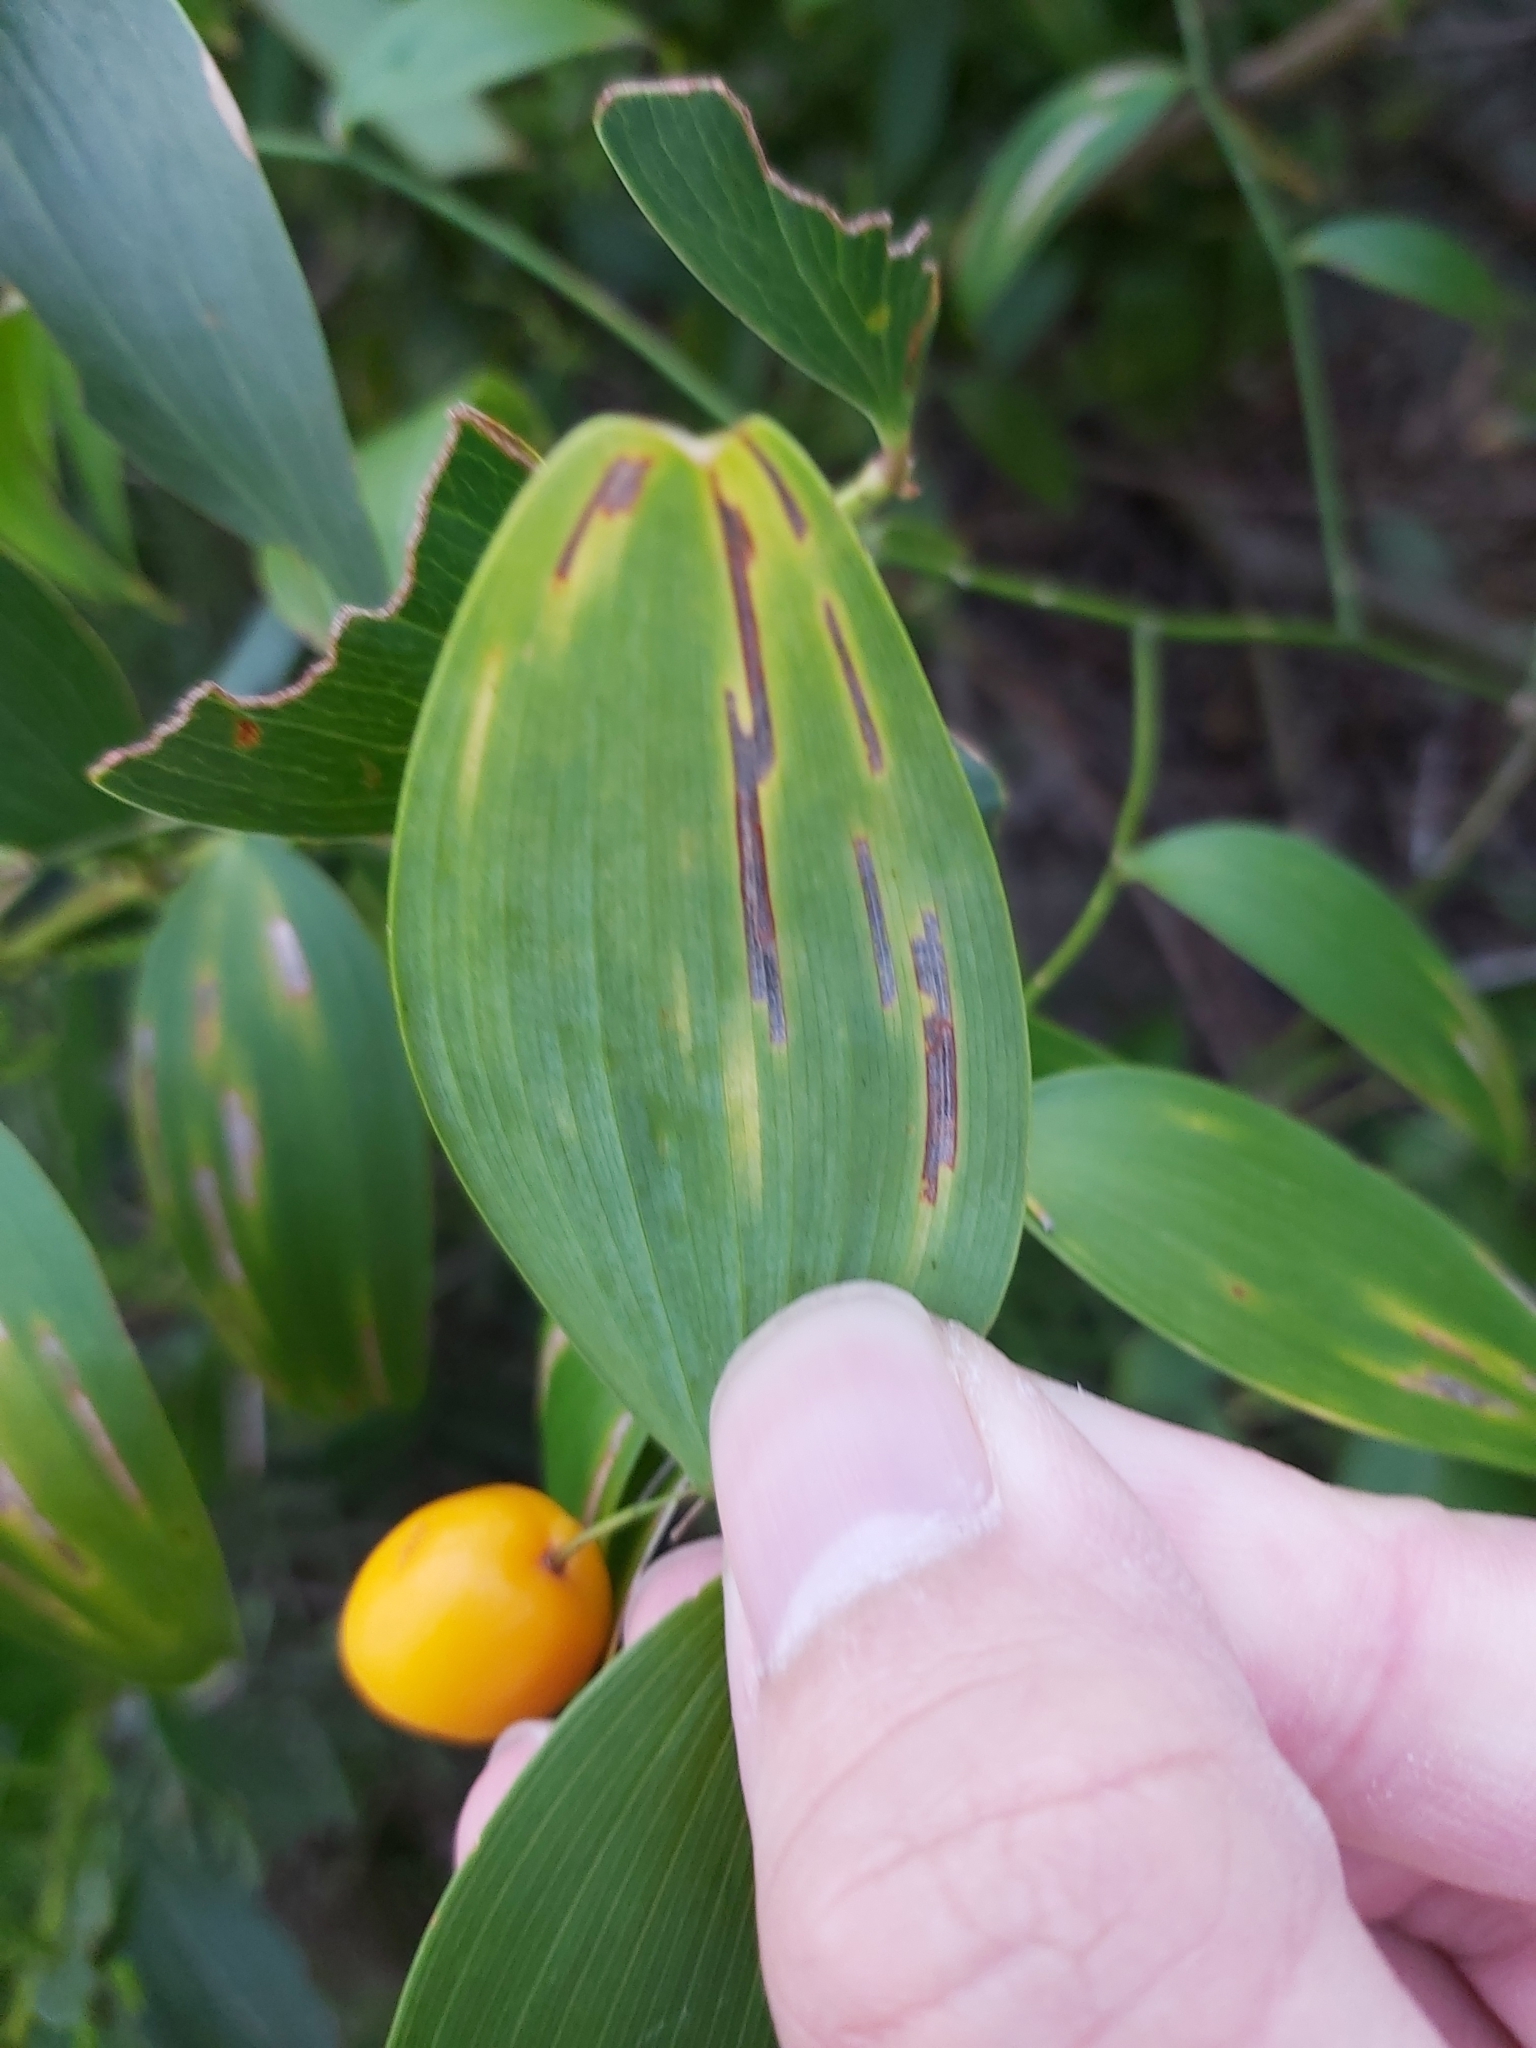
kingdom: Plantae
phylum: Tracheophyta
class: Liliopsida
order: Asparagales
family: Asparagaceae
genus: Eustrephus
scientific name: Eustrephus latifolius
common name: Orangevine
